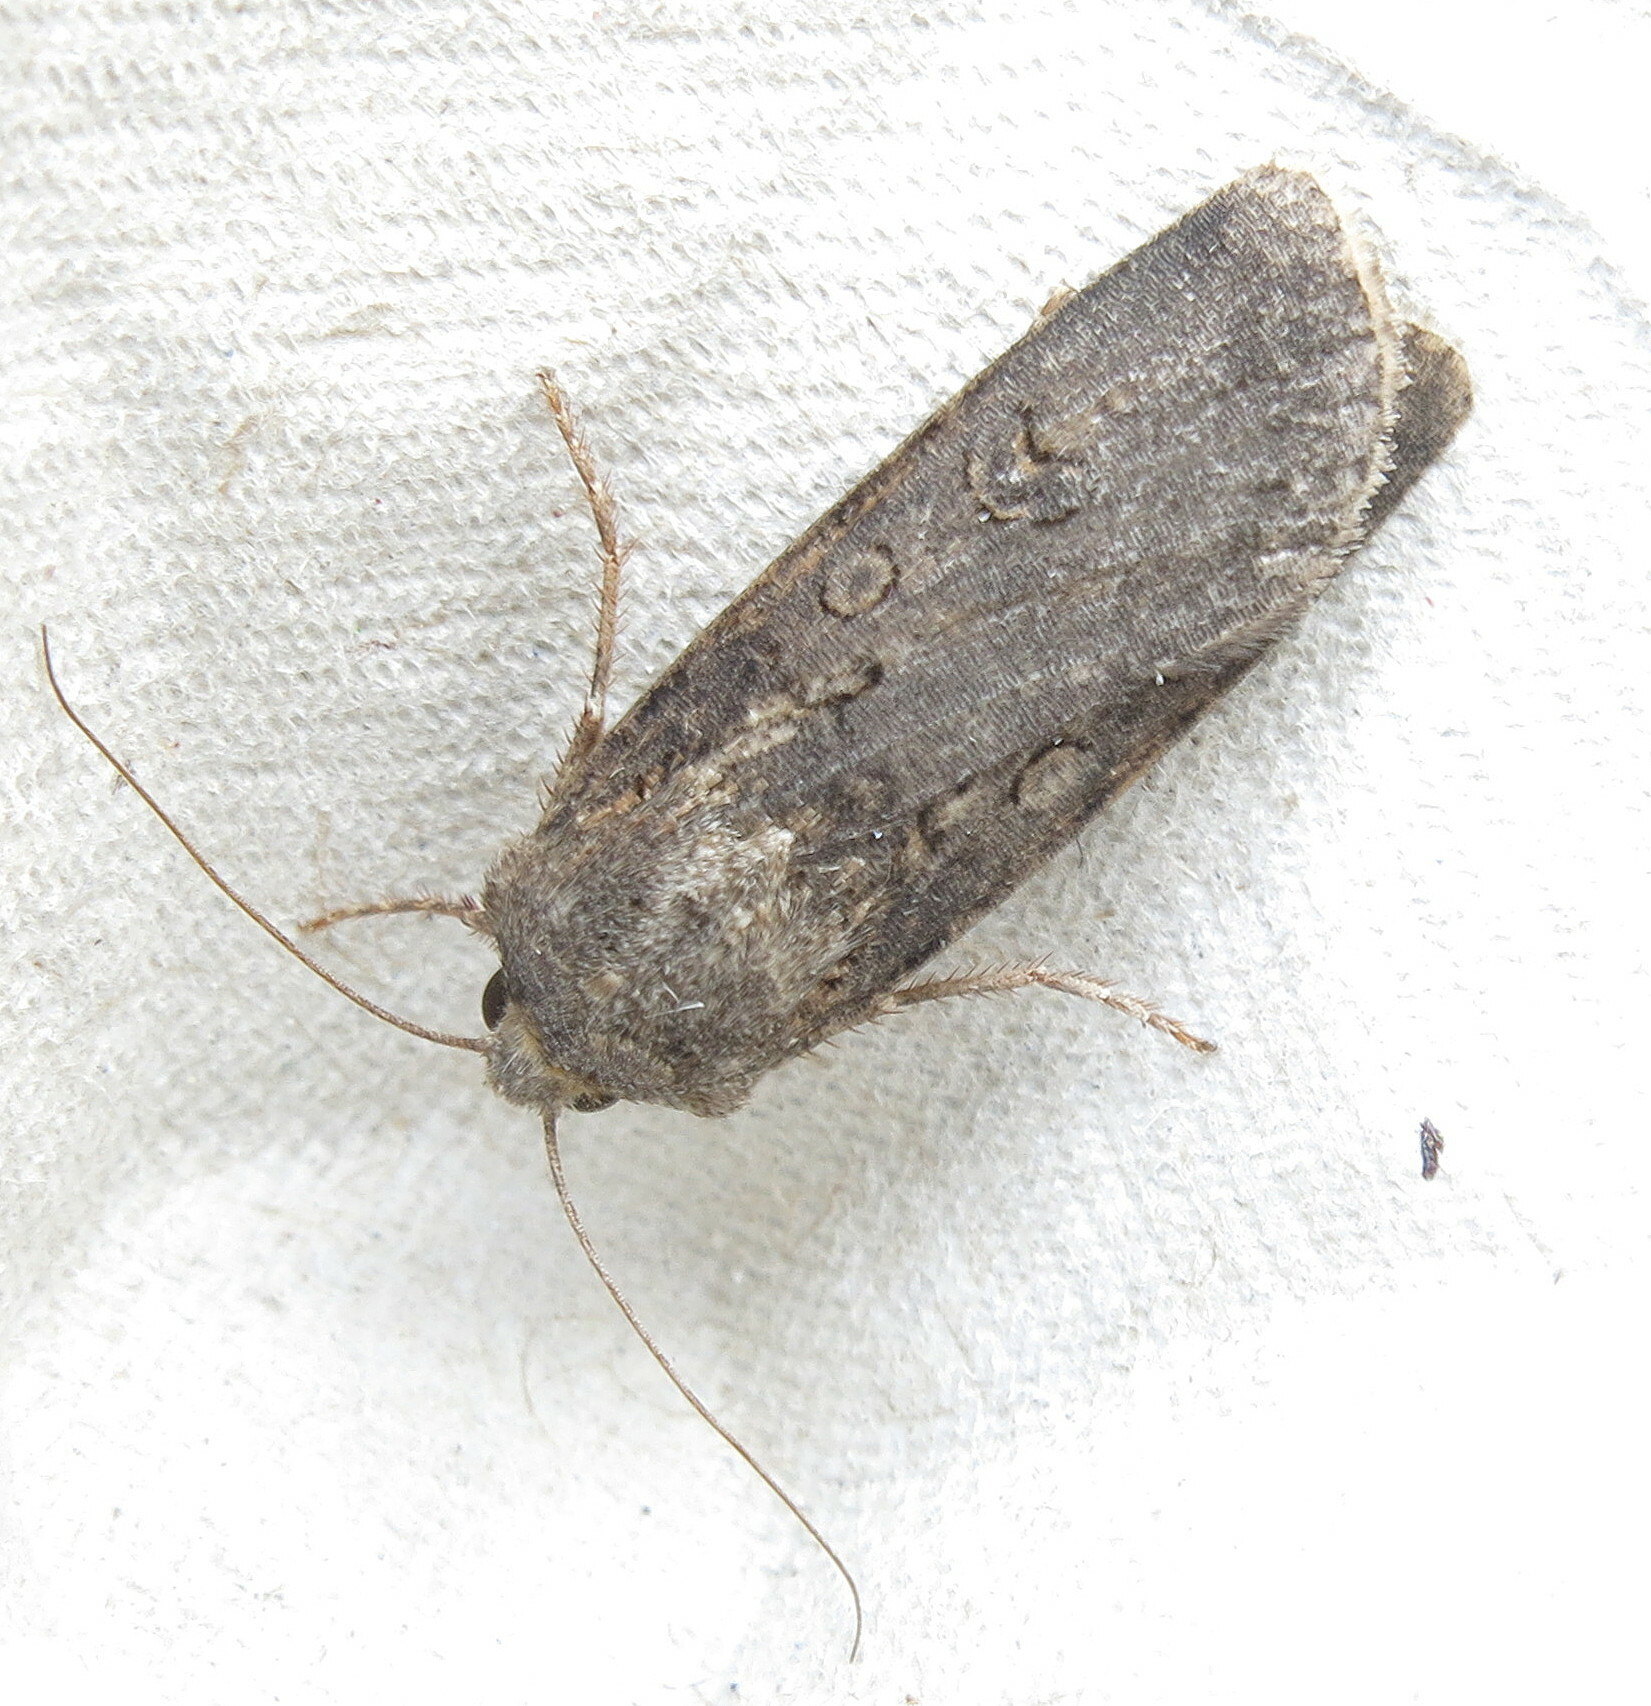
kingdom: Animalia
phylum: Arthropoda
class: Insecta
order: Lepidoptera
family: Noctuidae
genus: Agrotis
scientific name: Agrotis segetum
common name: Turnip moth
